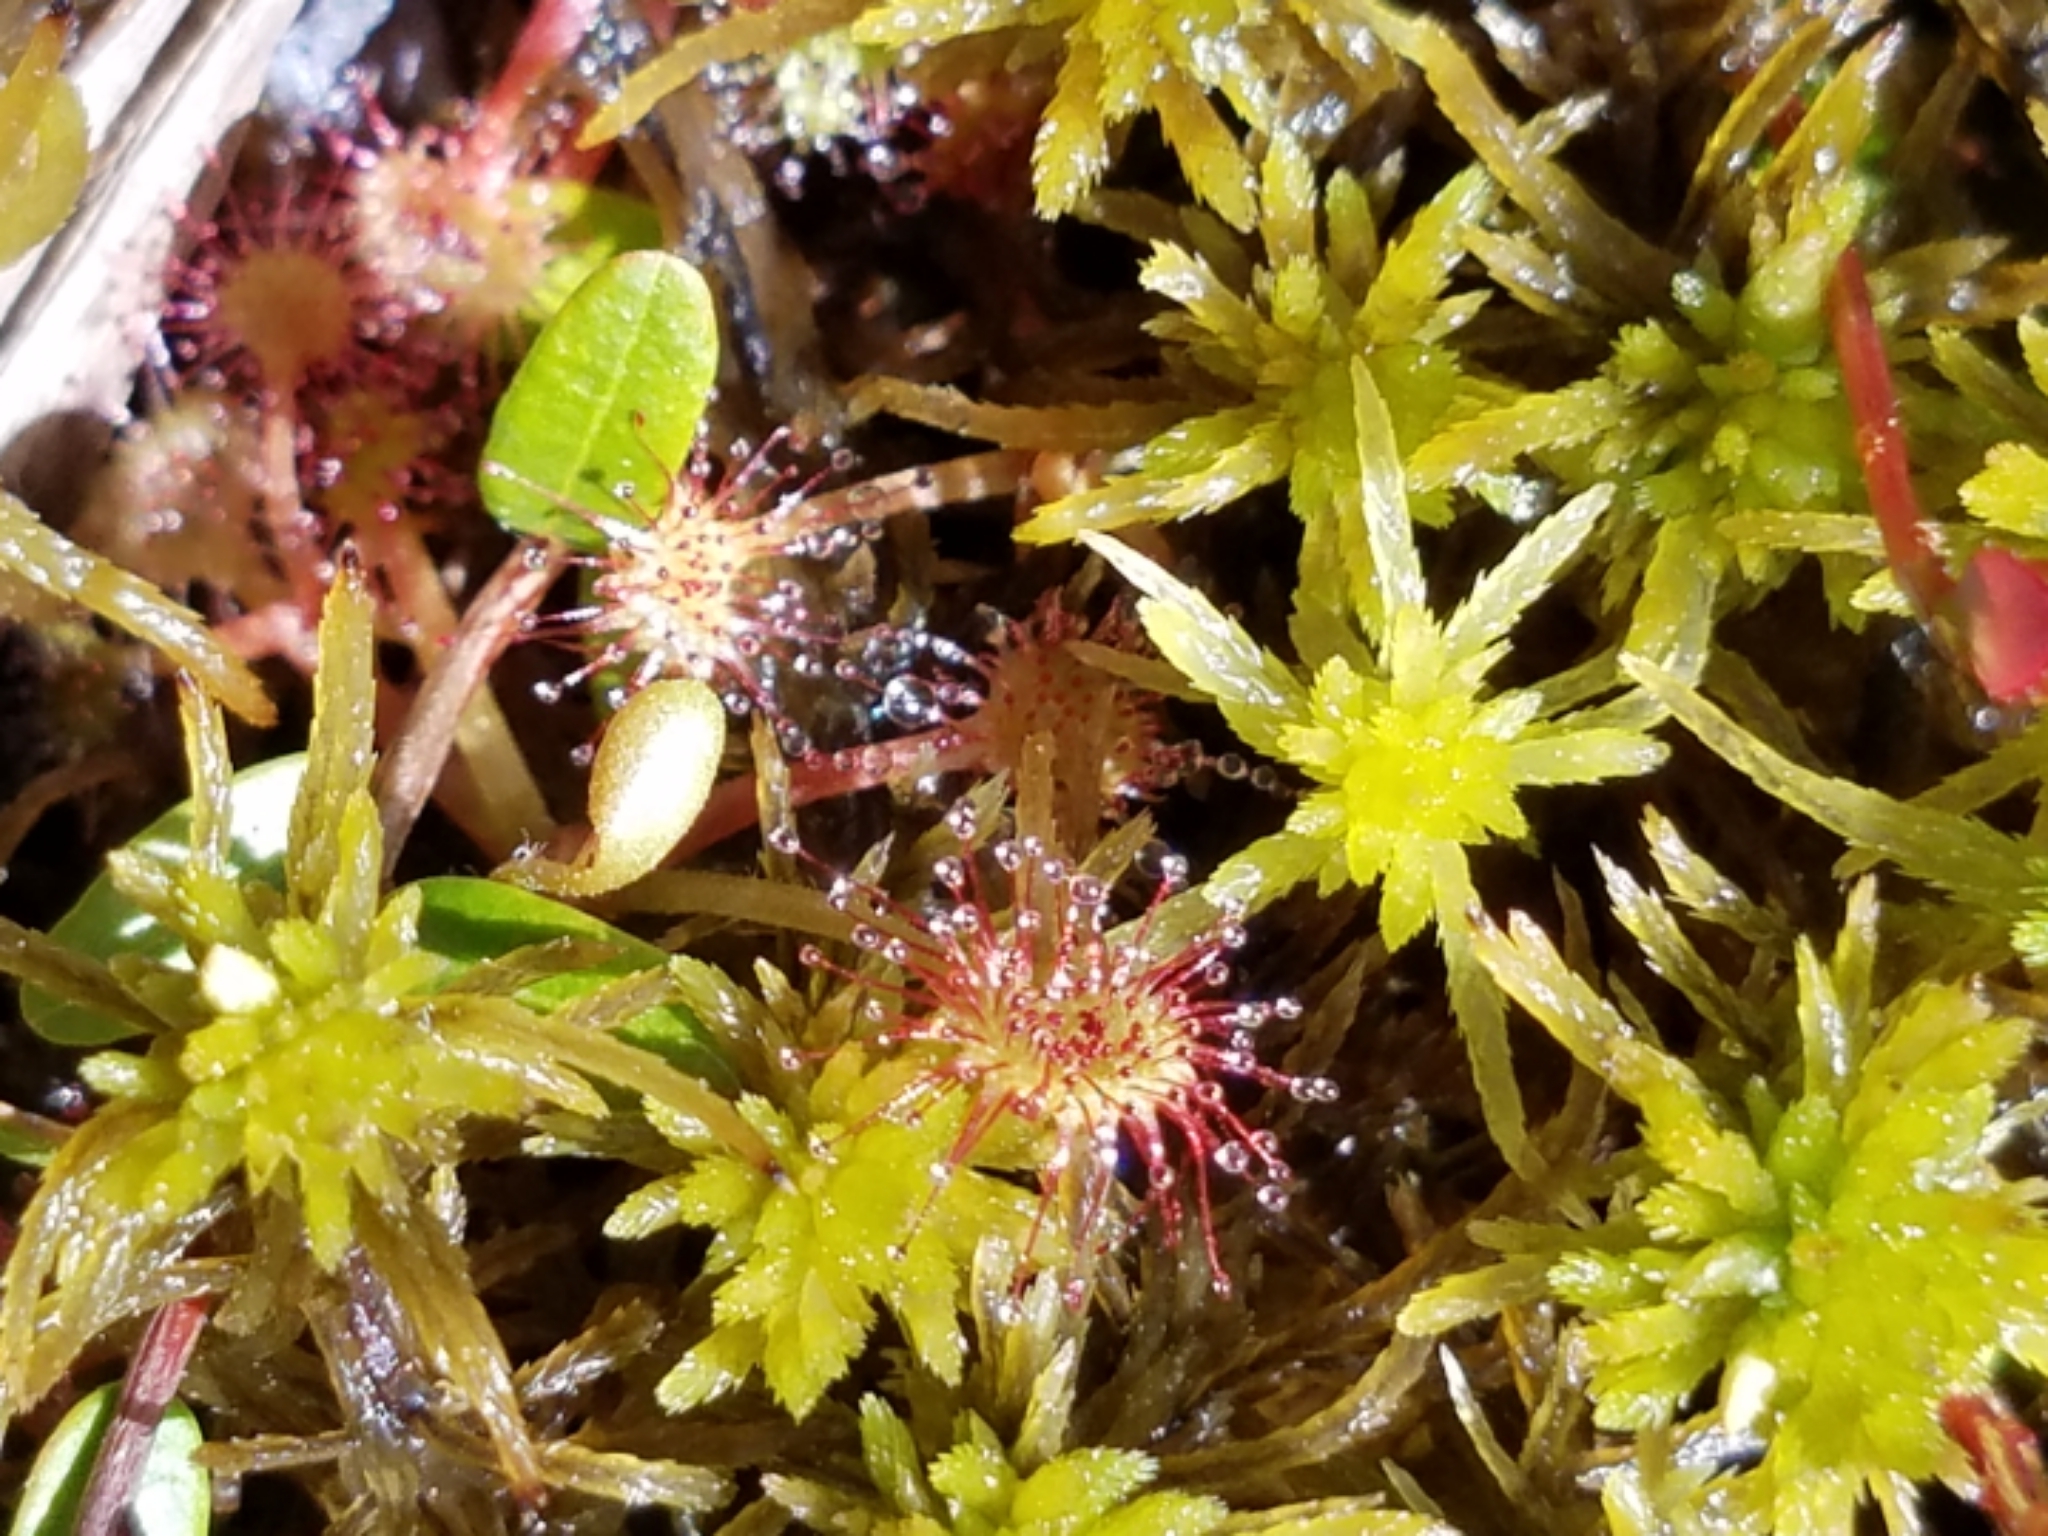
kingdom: Plantae
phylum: Tracheophyta
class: Magnoliopsida
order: Caryophyllales
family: Droseraceae
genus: Drosera
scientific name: Drosera rotundifolia
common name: Round-leaved sundew
